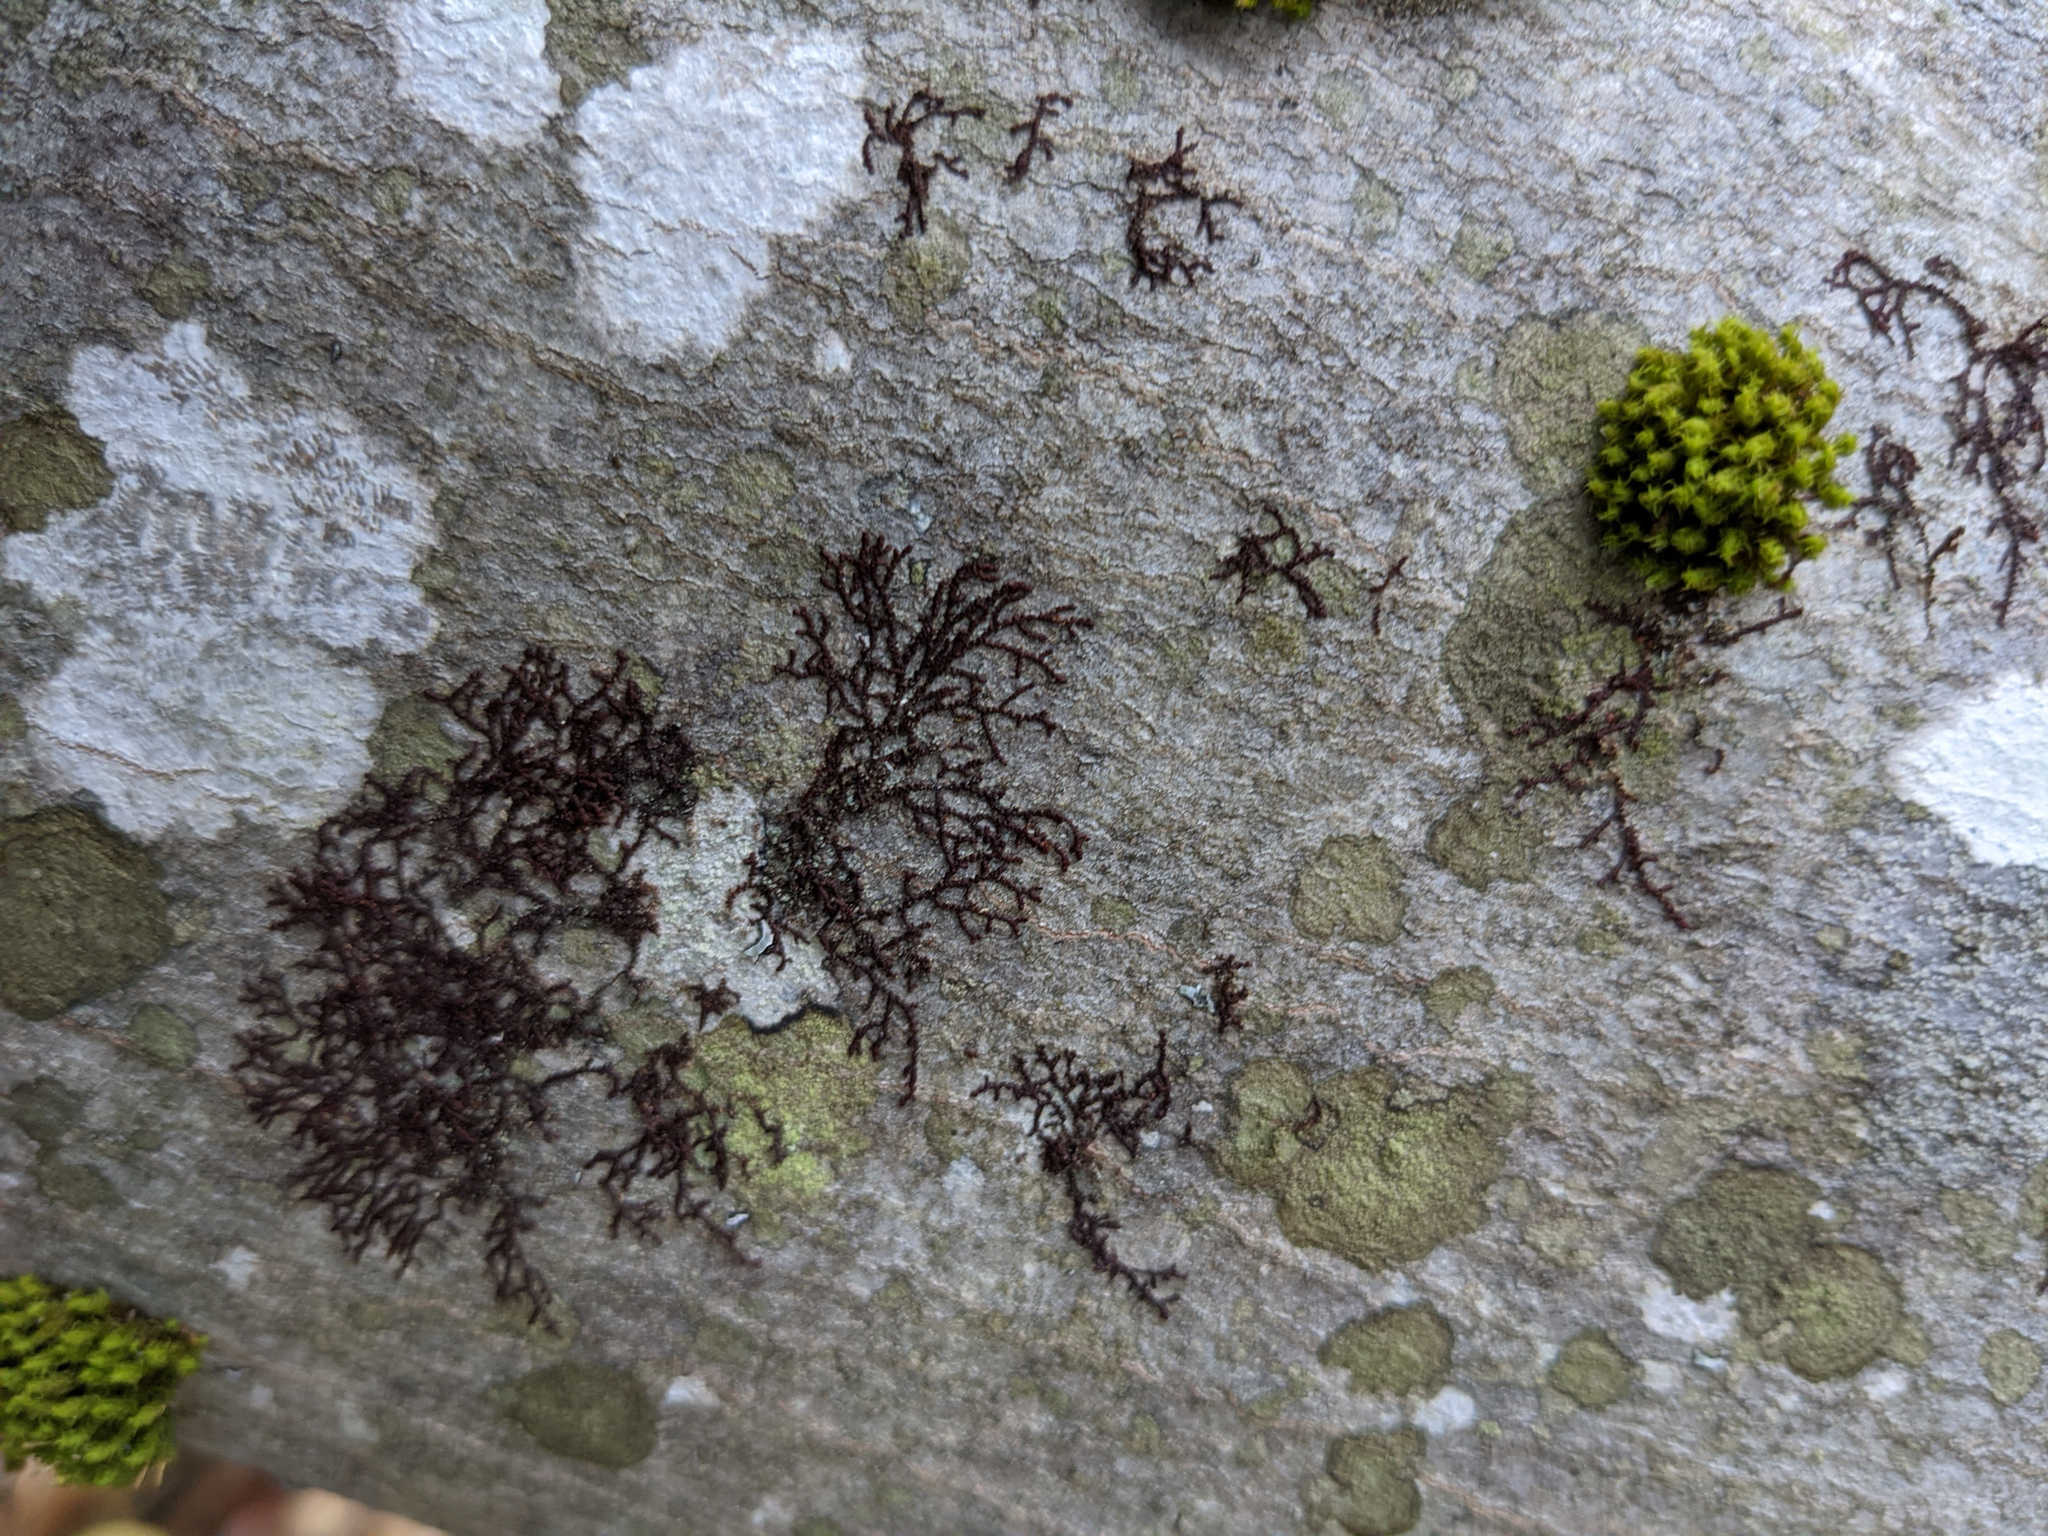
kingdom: Plantae
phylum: Marchantiophyta
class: Jungermanniopsida
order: Porellales
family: Frullaniaceae
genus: Frullania
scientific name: Frullania eboracensis
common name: New york scalewort
